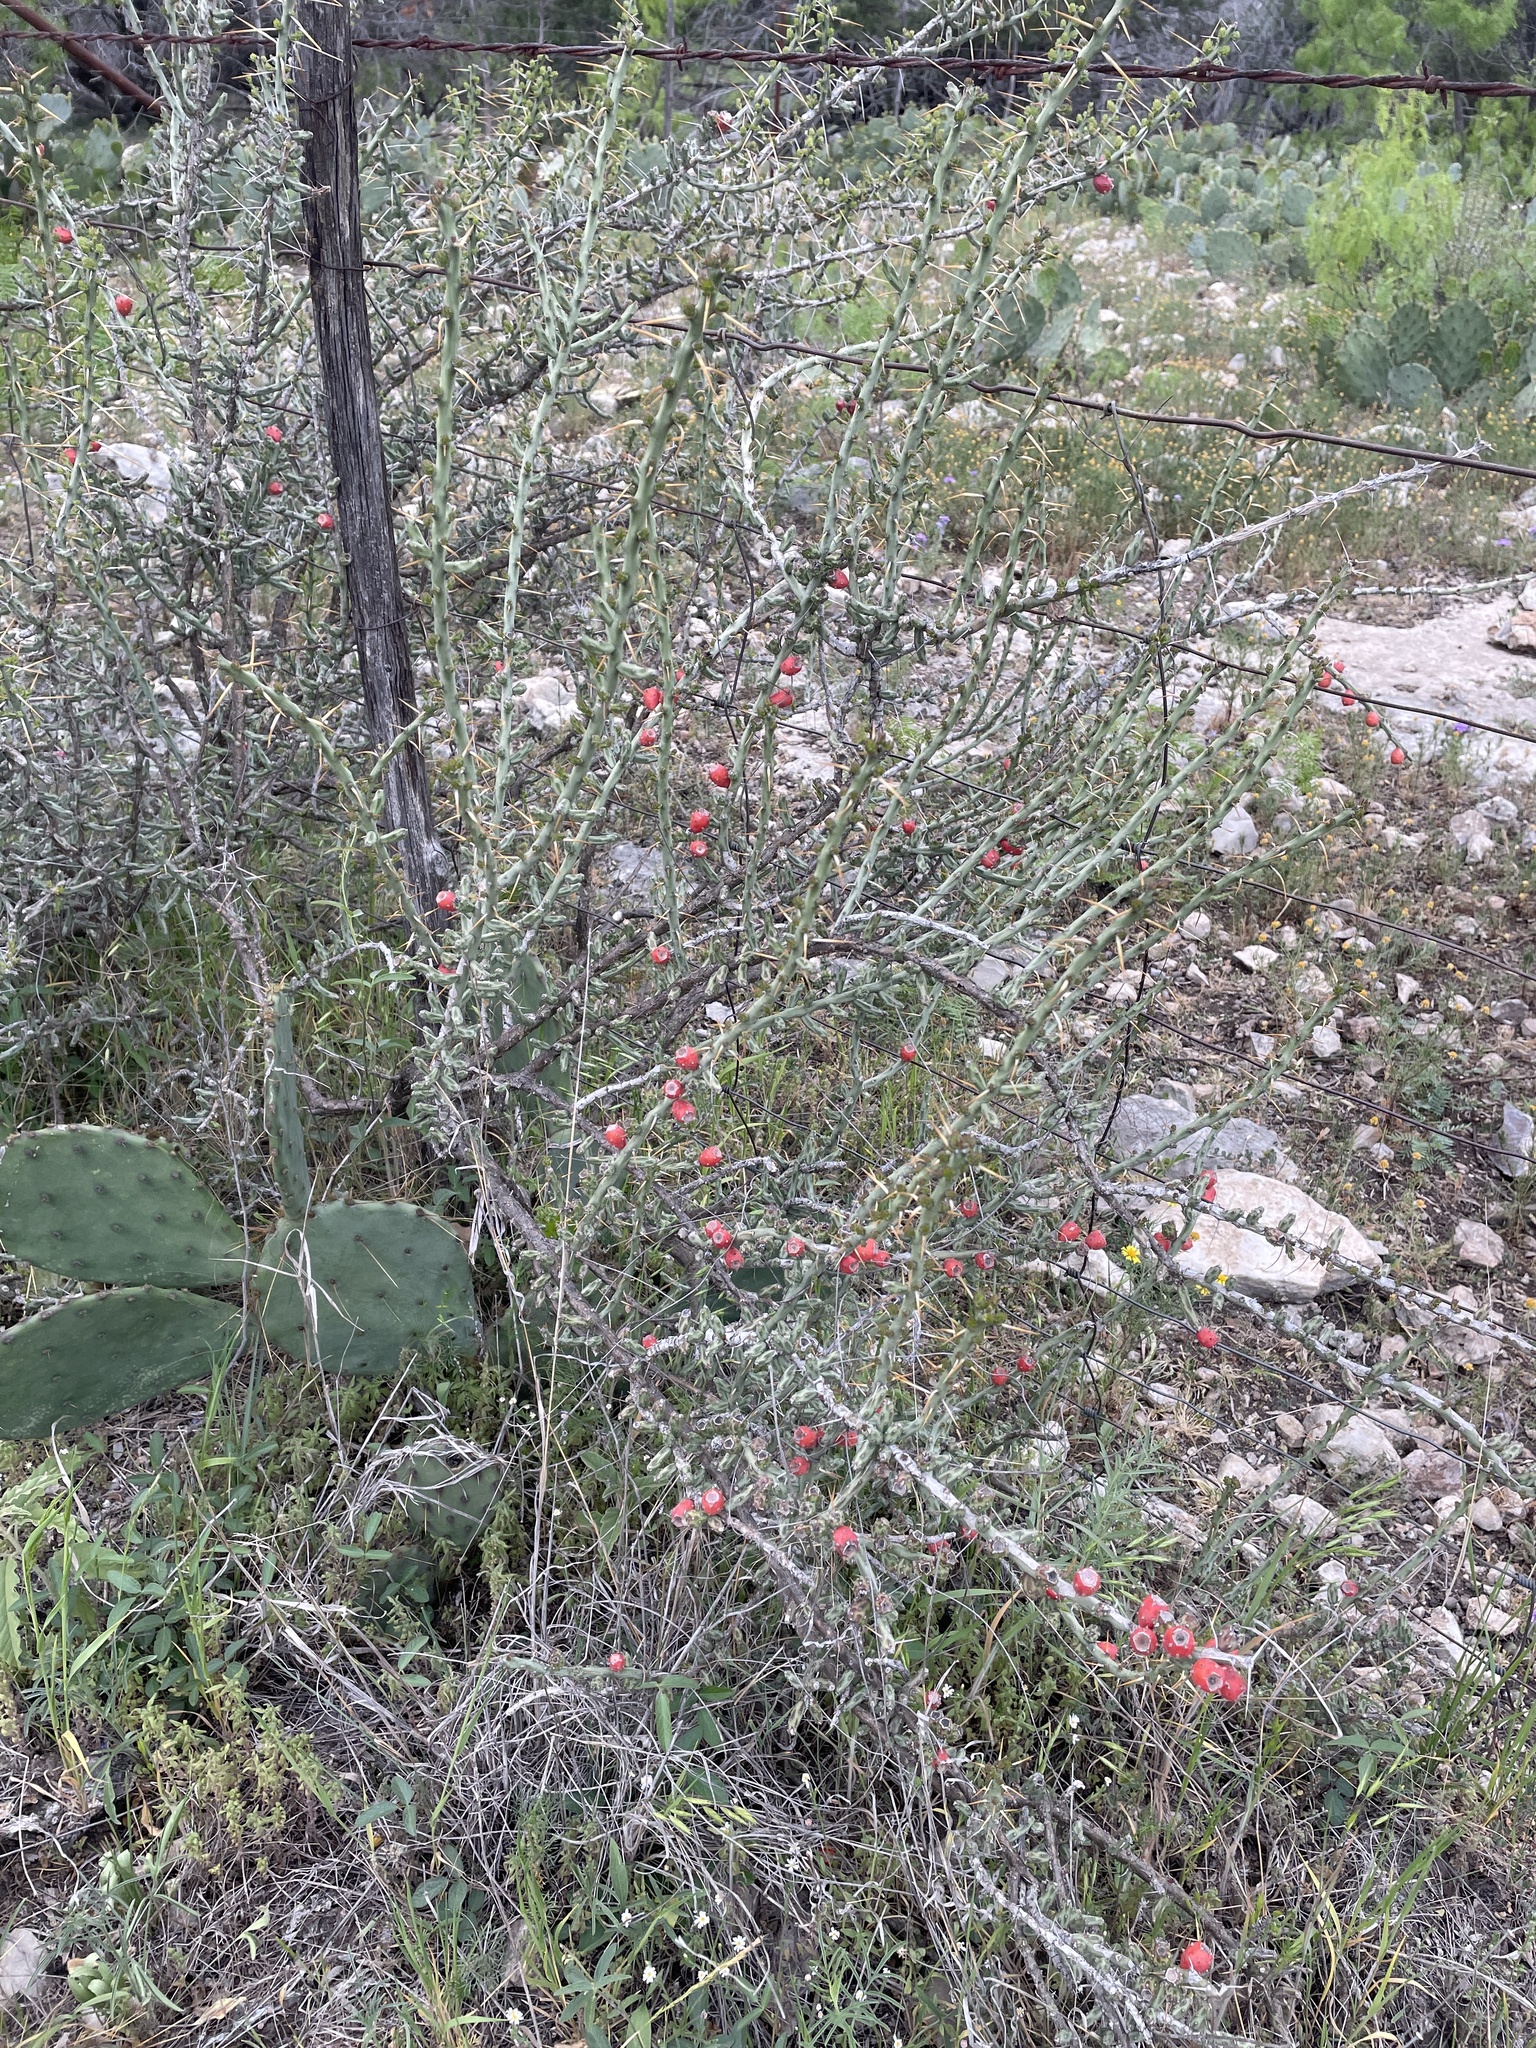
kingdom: Plantae
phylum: Tracheophyta
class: Magnoliopsida
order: Caryophyllales
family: Cactaceae
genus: Cylindropuntia
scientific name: Cylindropuntia leptocaulis
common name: Christmas cactus
